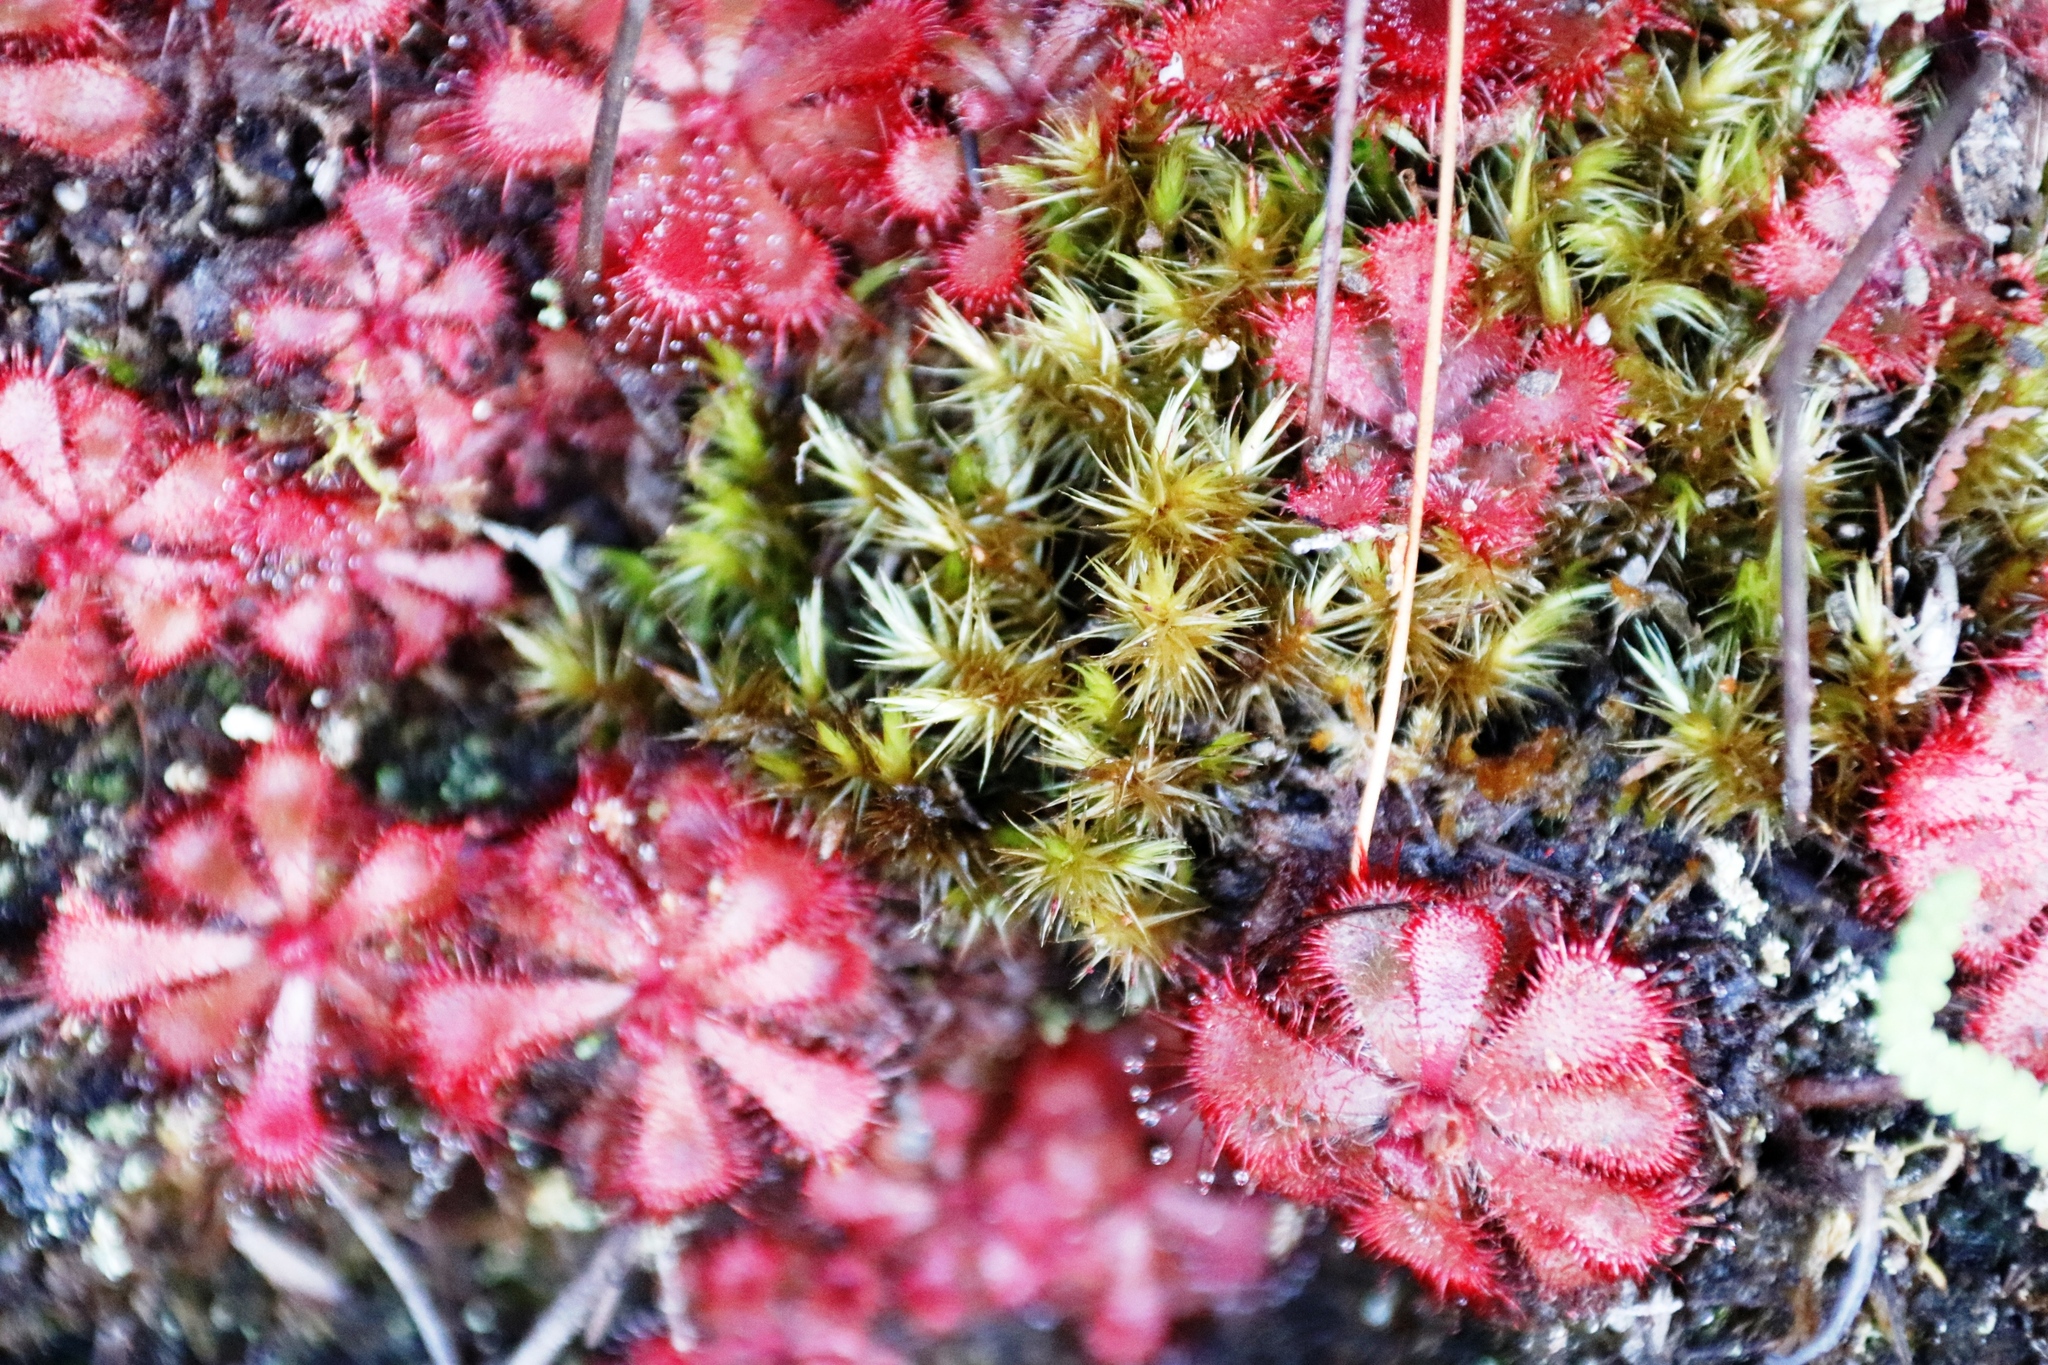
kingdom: Plantae
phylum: Tracheophyta
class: Magnoliopsida
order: Caryophyllales
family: Droseraceae
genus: Drosera
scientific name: Drosera aliciae
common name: Alice sundew
